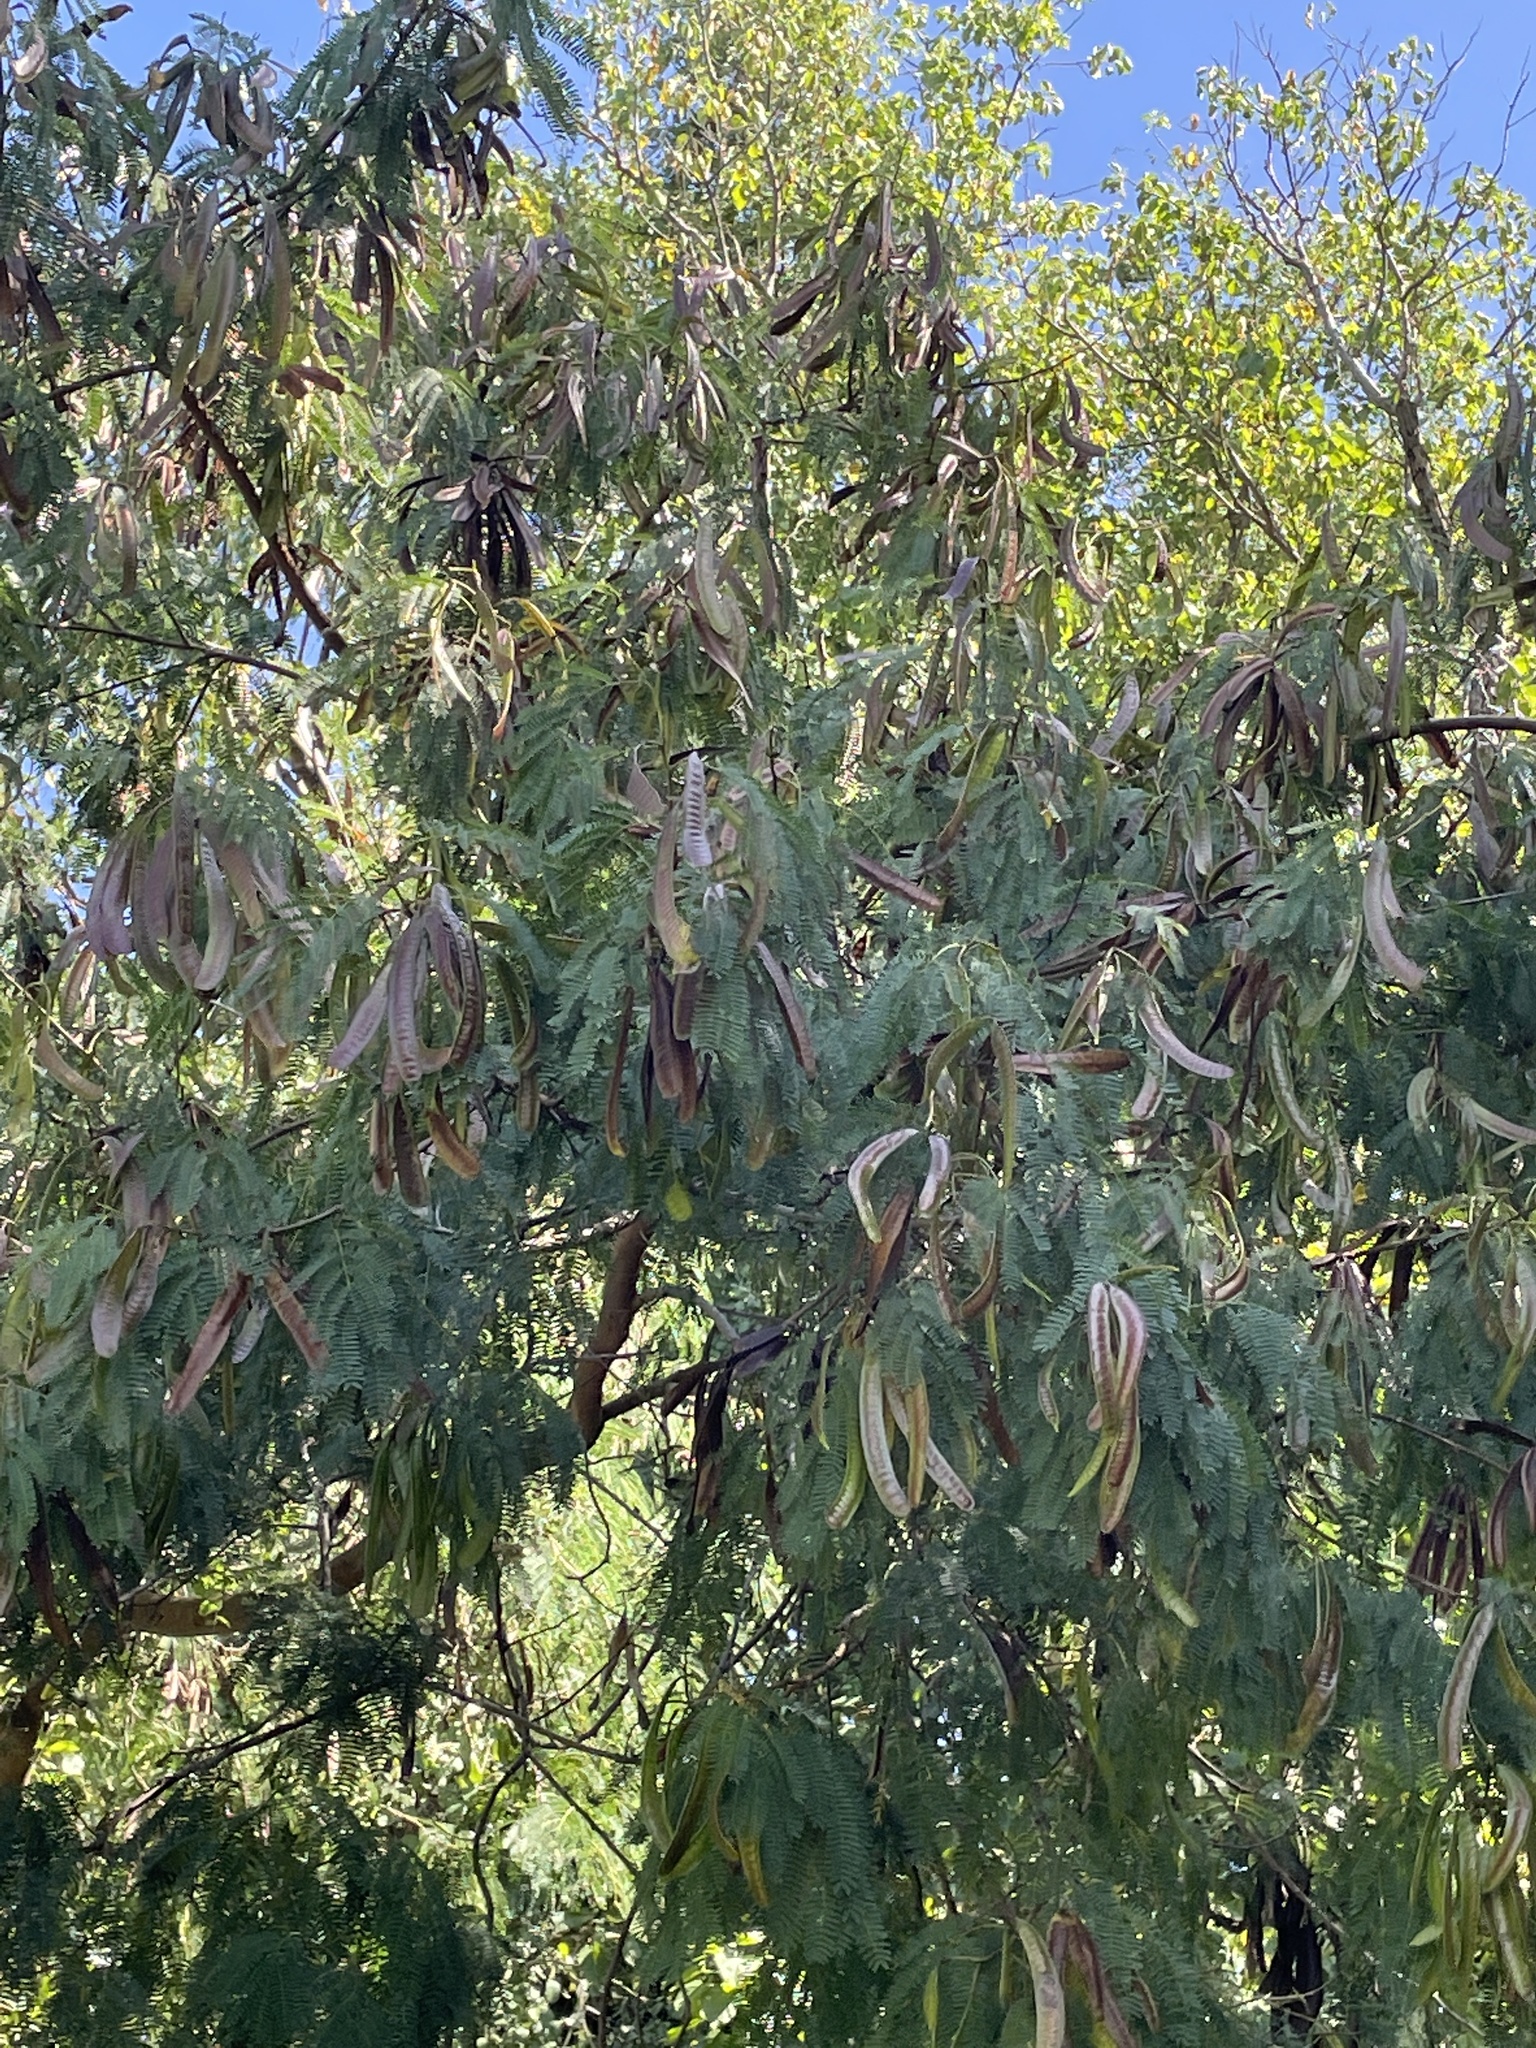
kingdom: Plantae
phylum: Tracheophyta
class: Magnoliopsida
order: Fabales
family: Fabaceae
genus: Leucaena
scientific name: Leucaena leucocephala
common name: White leadtree
